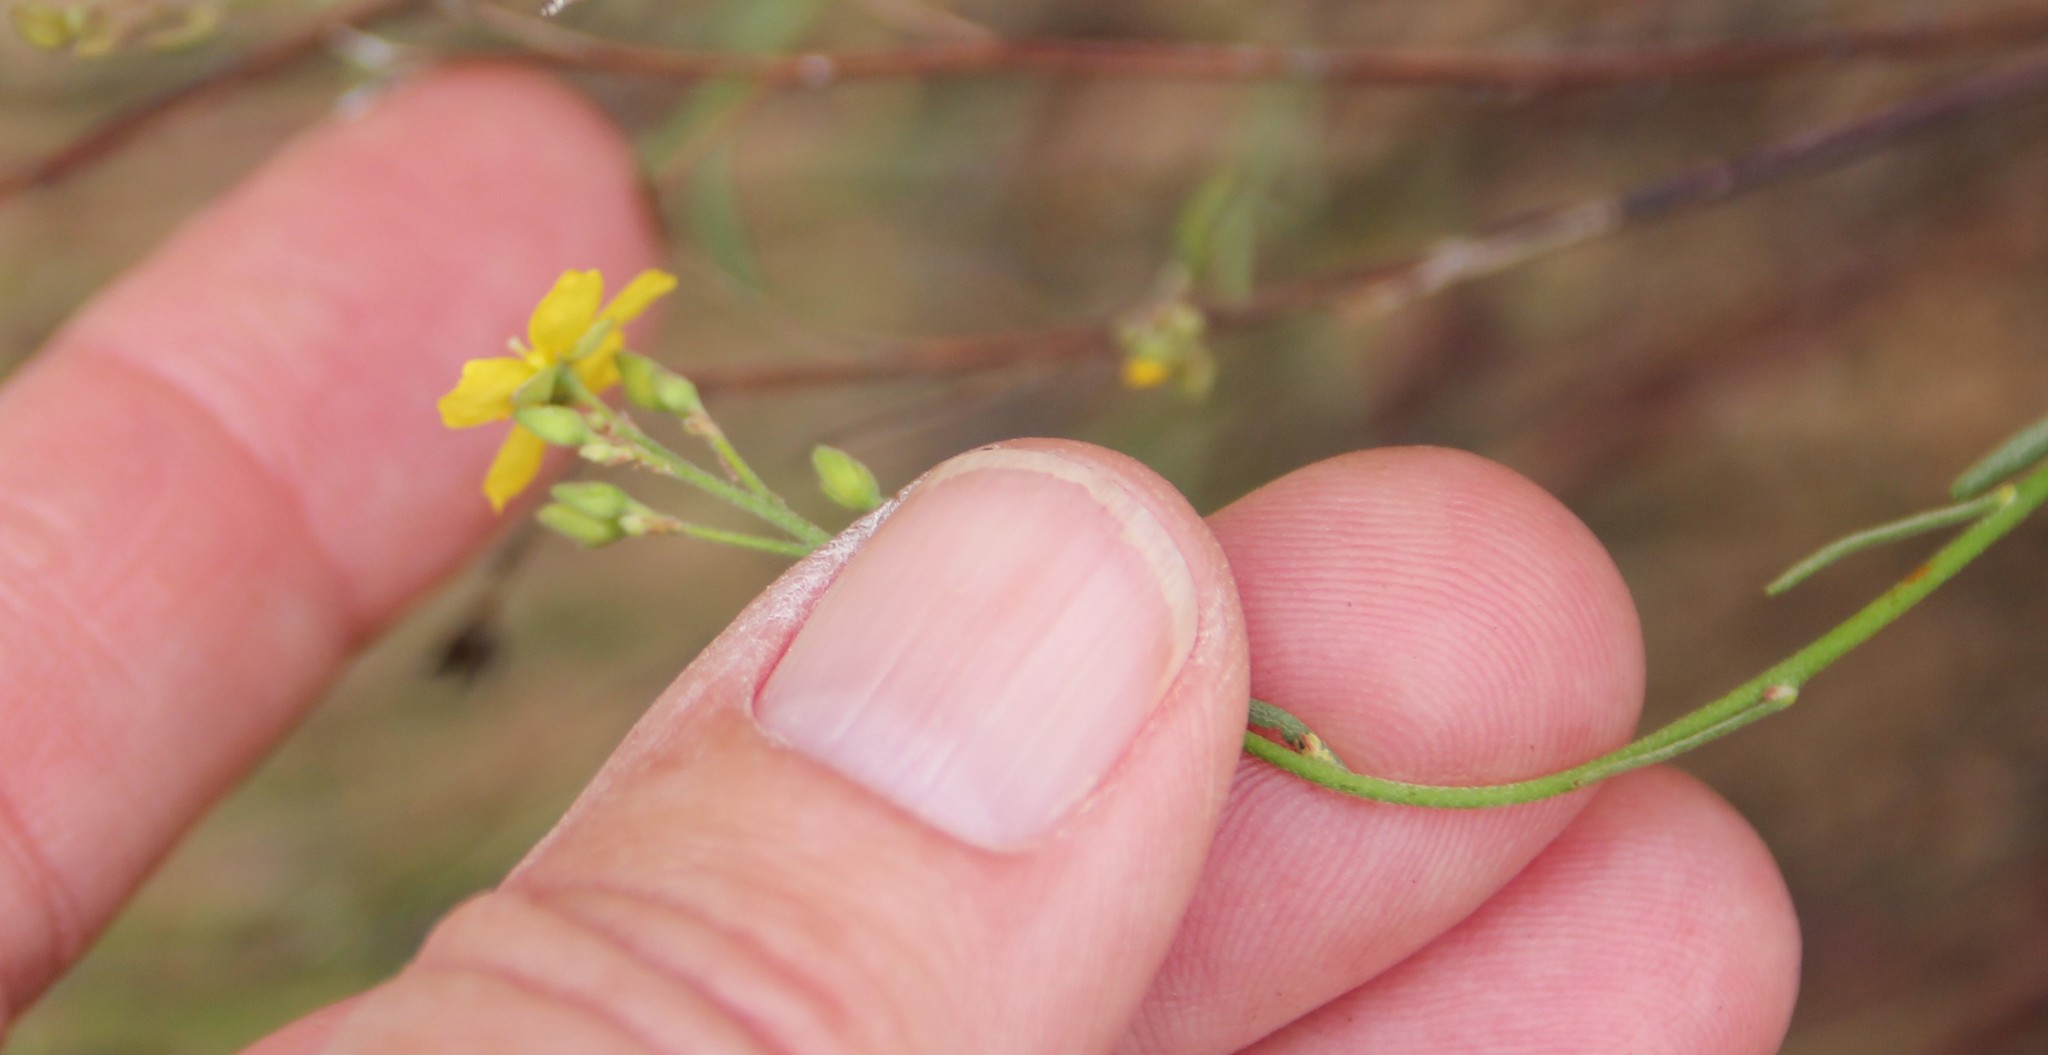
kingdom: Plantae
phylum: Tracheophyta
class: Magnoliopsida
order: Malvales
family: Cistaceae
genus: Crocanthemum
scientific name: Crocanthemum scoparium
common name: Broom-rose
